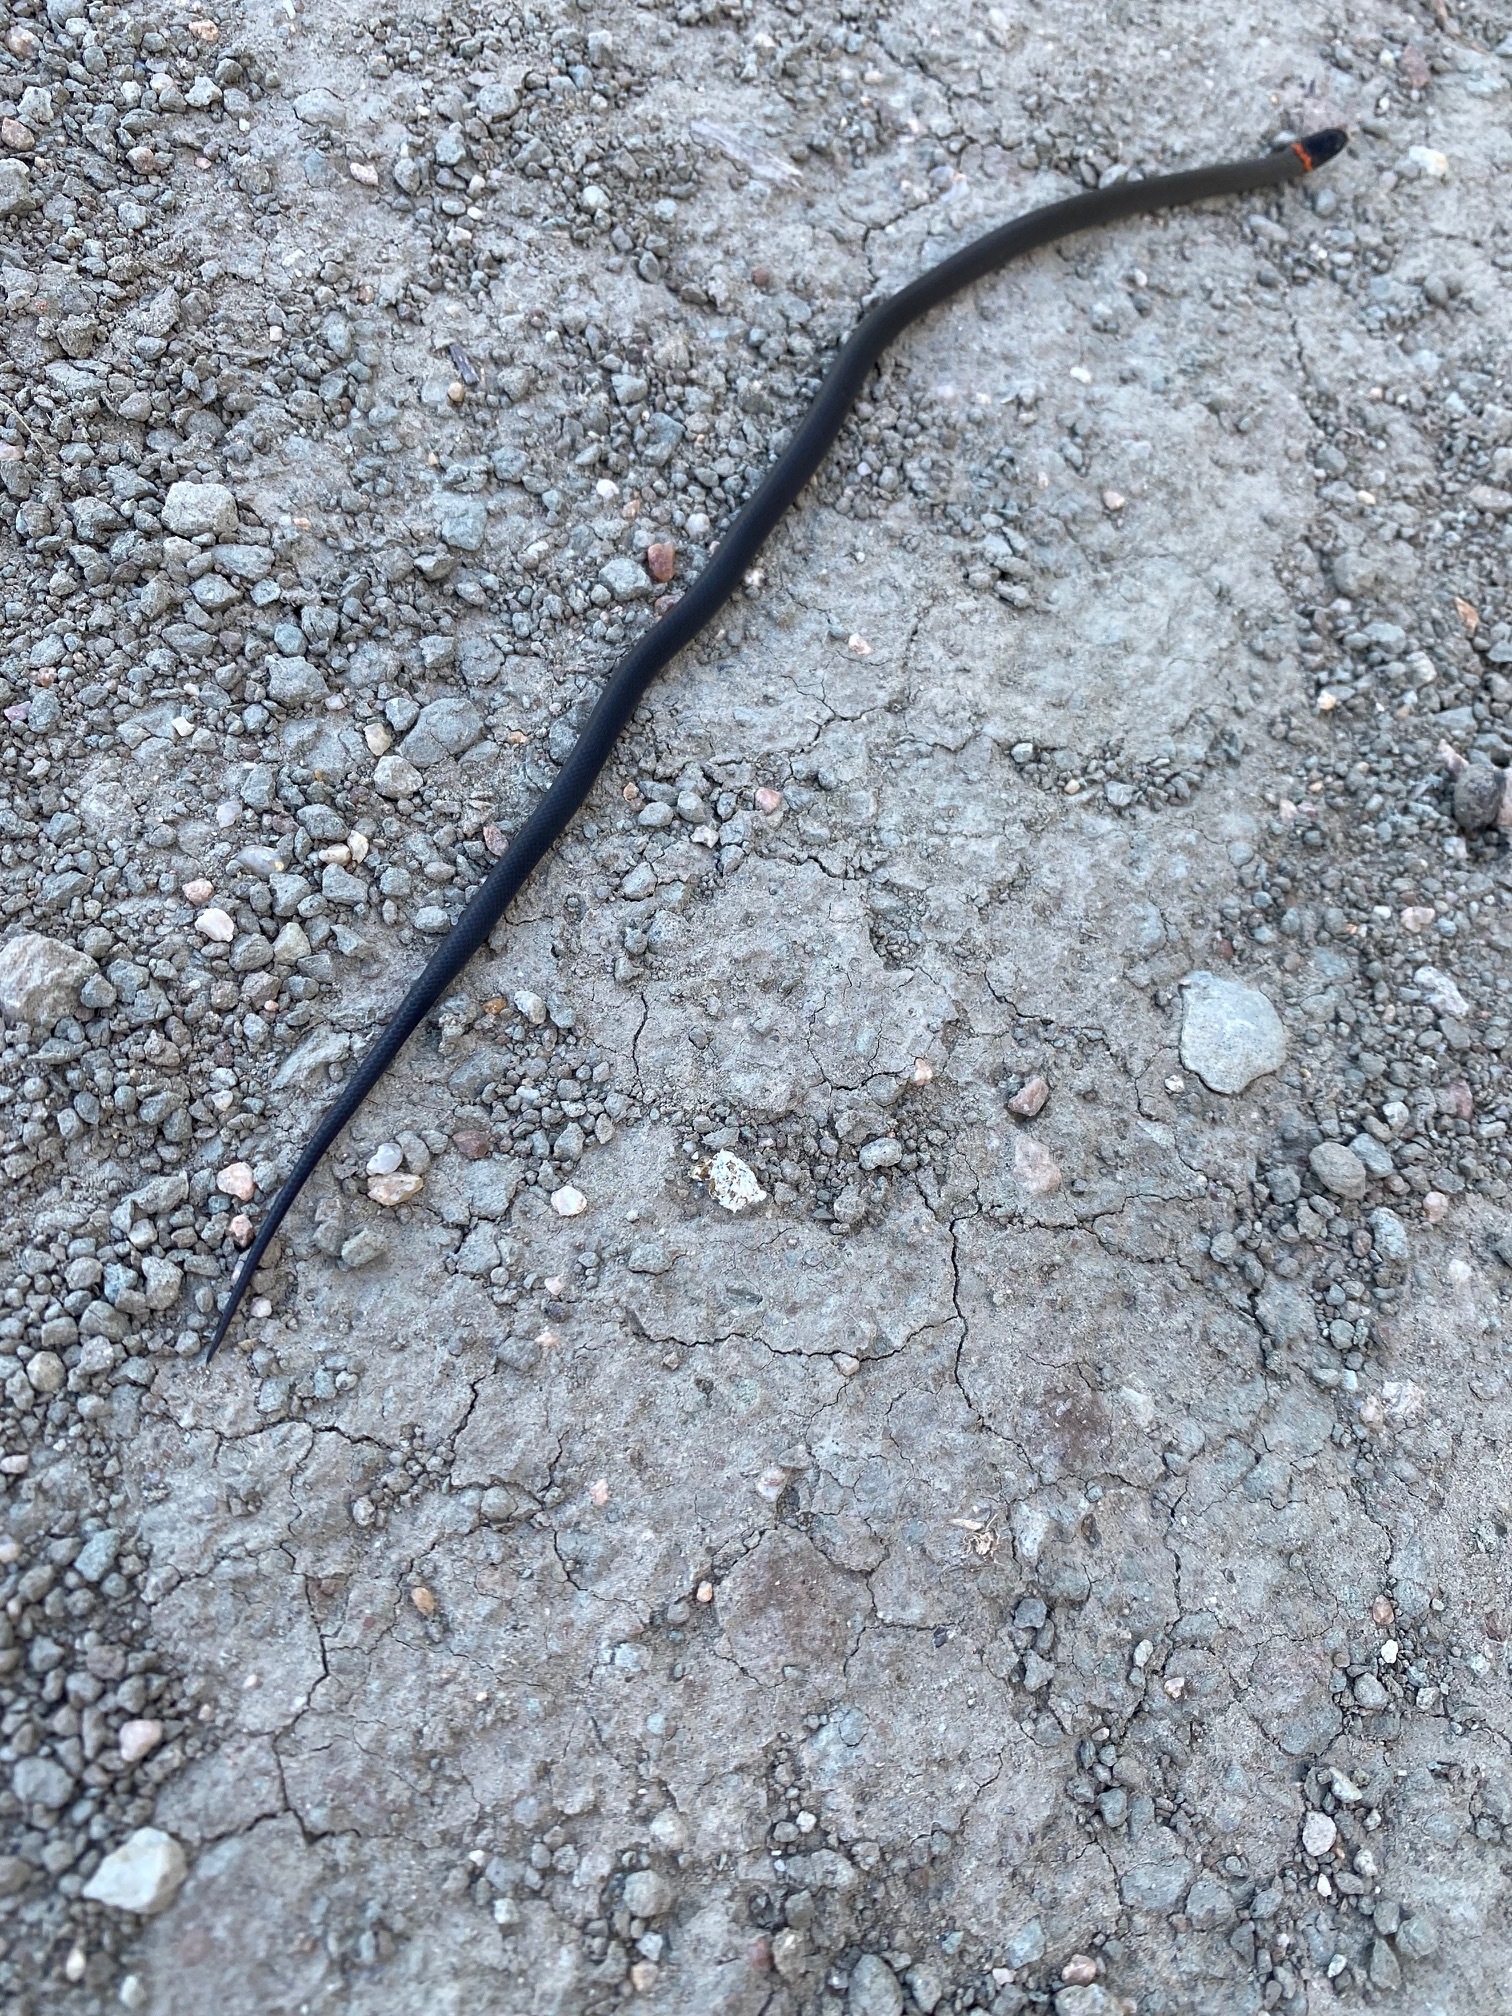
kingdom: Animalia
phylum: Chordata
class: Squamata
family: Colubridae
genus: Diadophis
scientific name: Diadophis punctatus
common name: Ringneck snake
